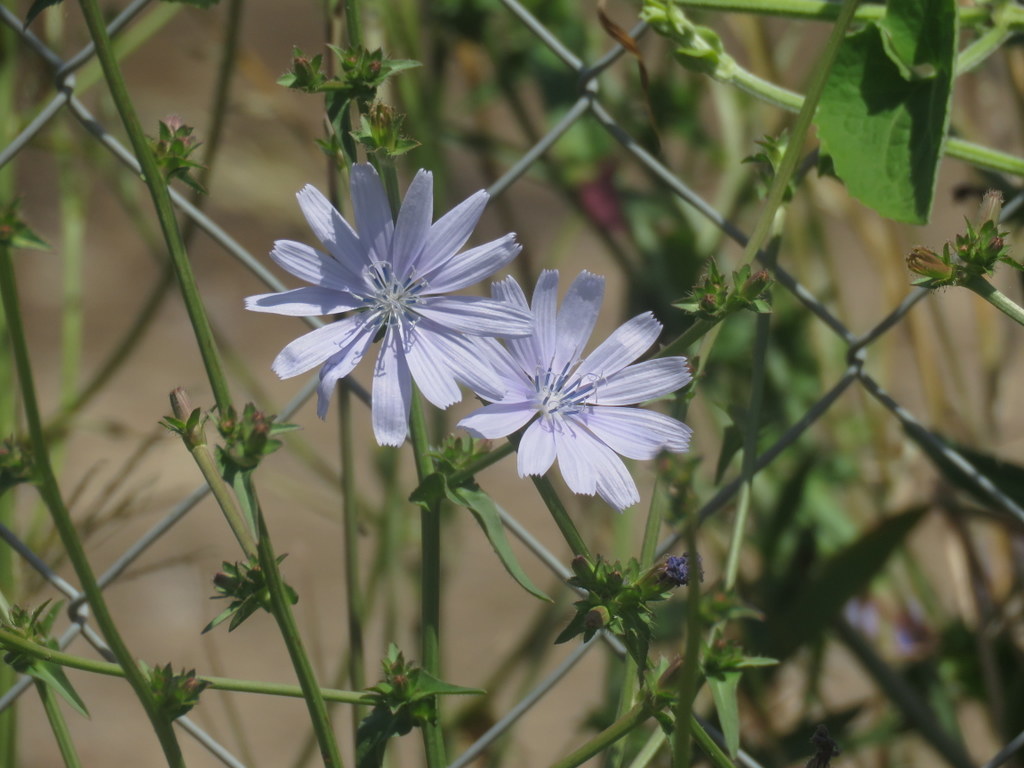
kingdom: Plantae
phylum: Tracheophyta
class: Magnoliopsida
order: Asterales
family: Asteraceae
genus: Cichorium
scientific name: Cichorium intybus
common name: Chicory
